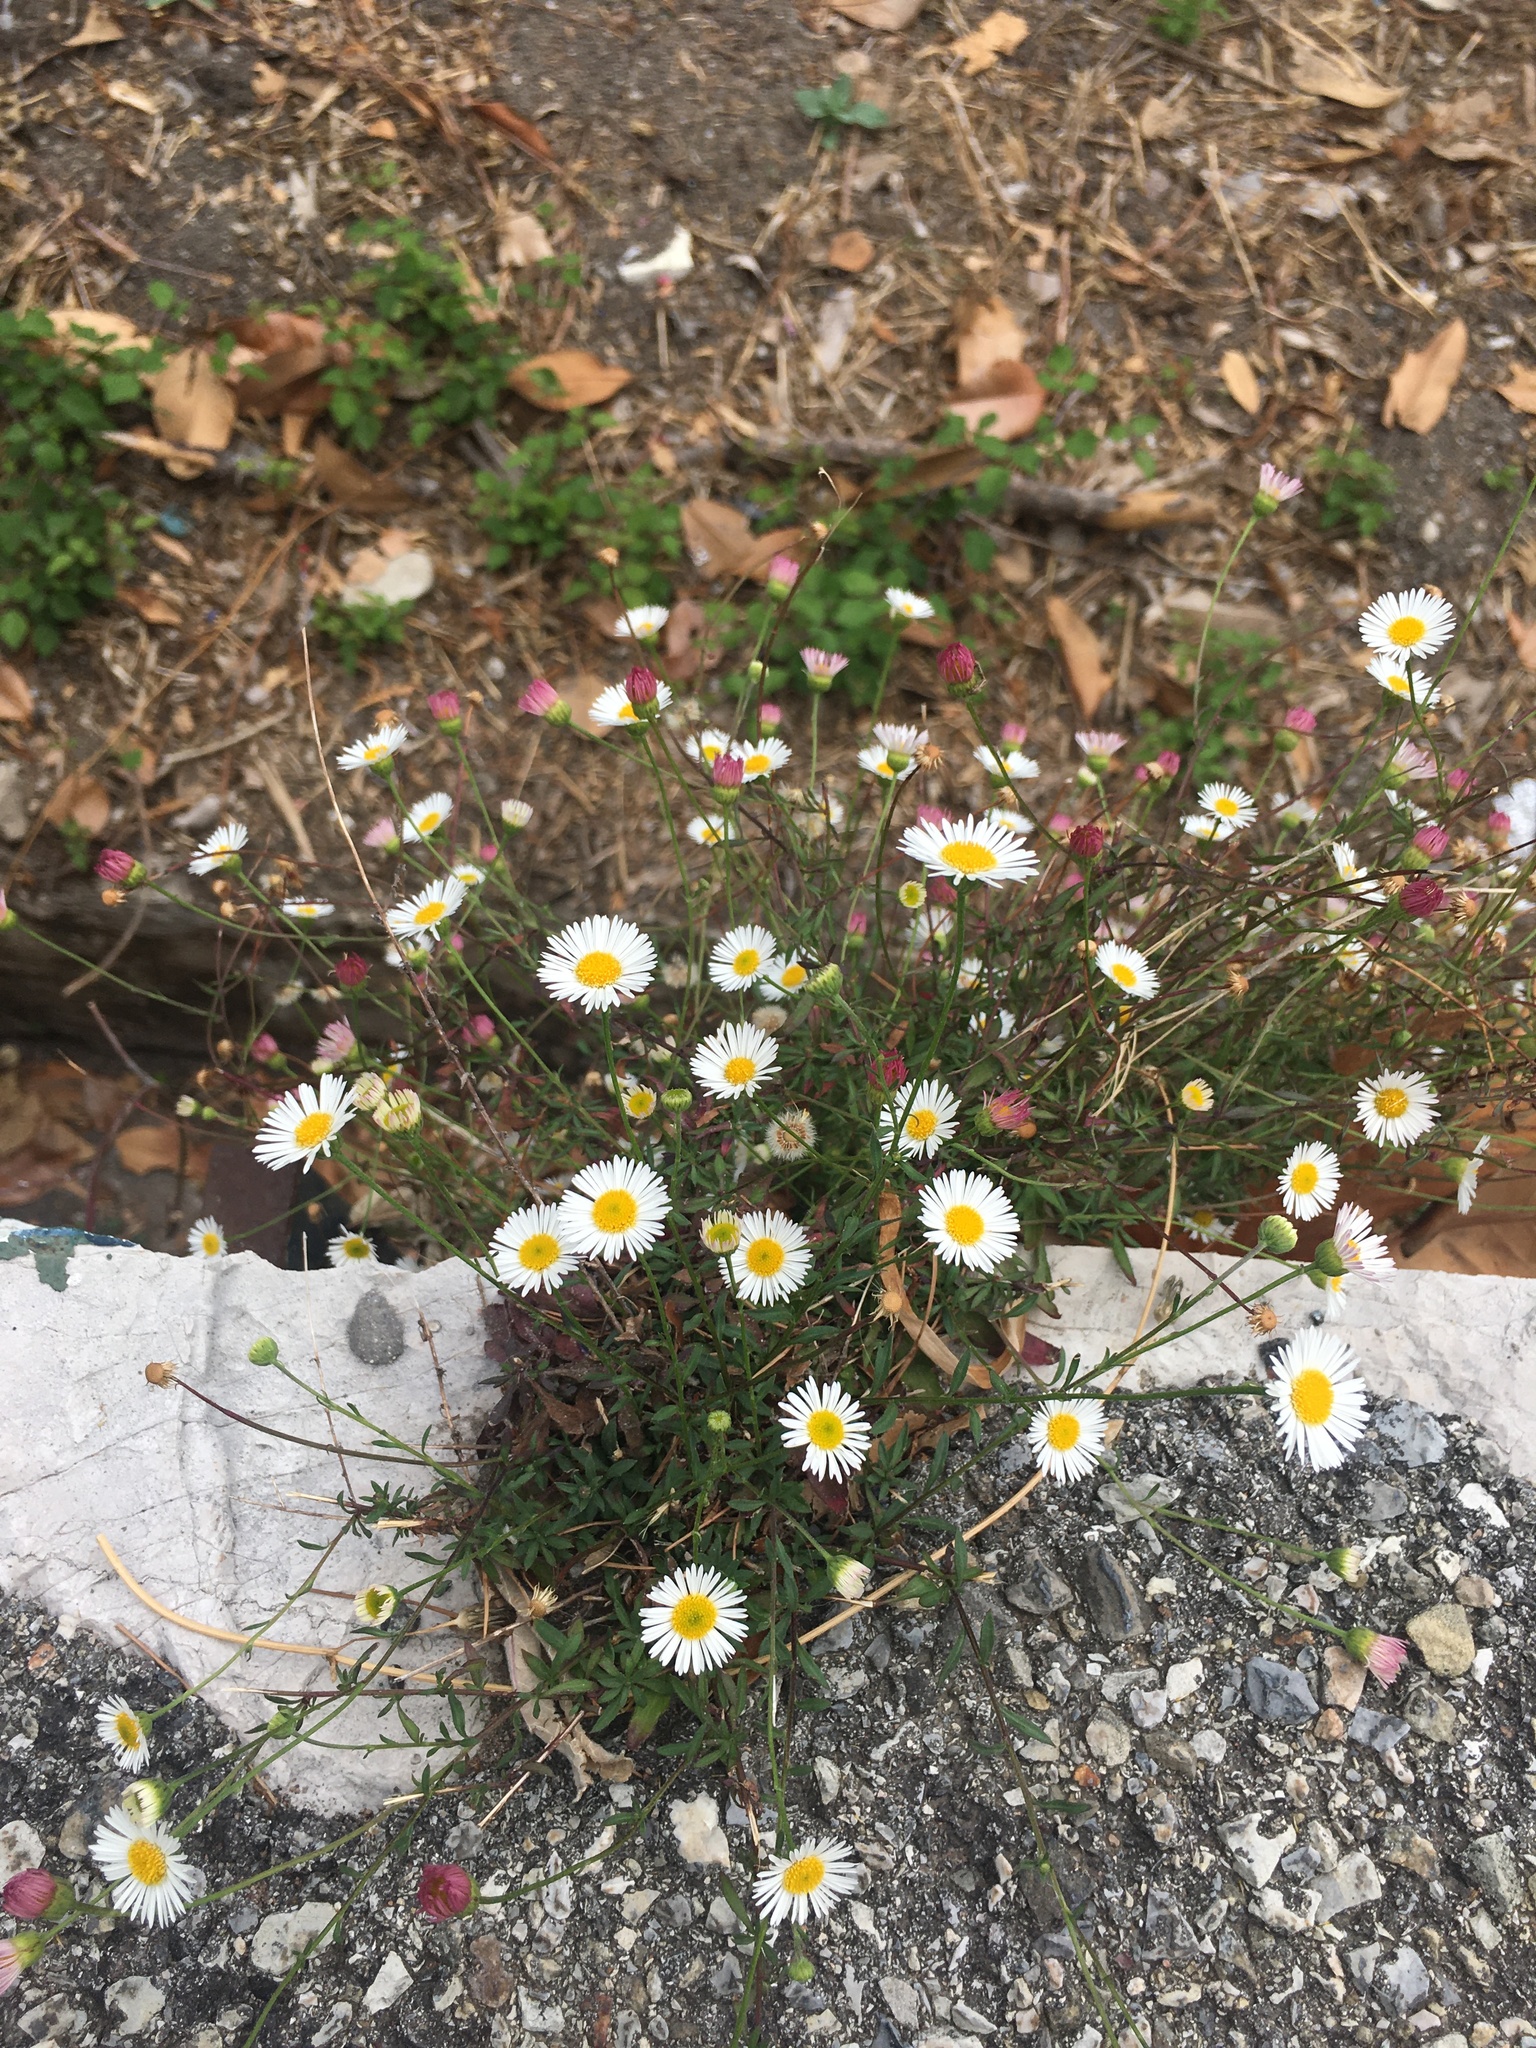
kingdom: Plantae
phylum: Tracheophyta
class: Magnoliopsida
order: Asterales
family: Asteraceae
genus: Erigeron
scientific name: Erigeron karvinskianus
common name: Mexican fleabane
